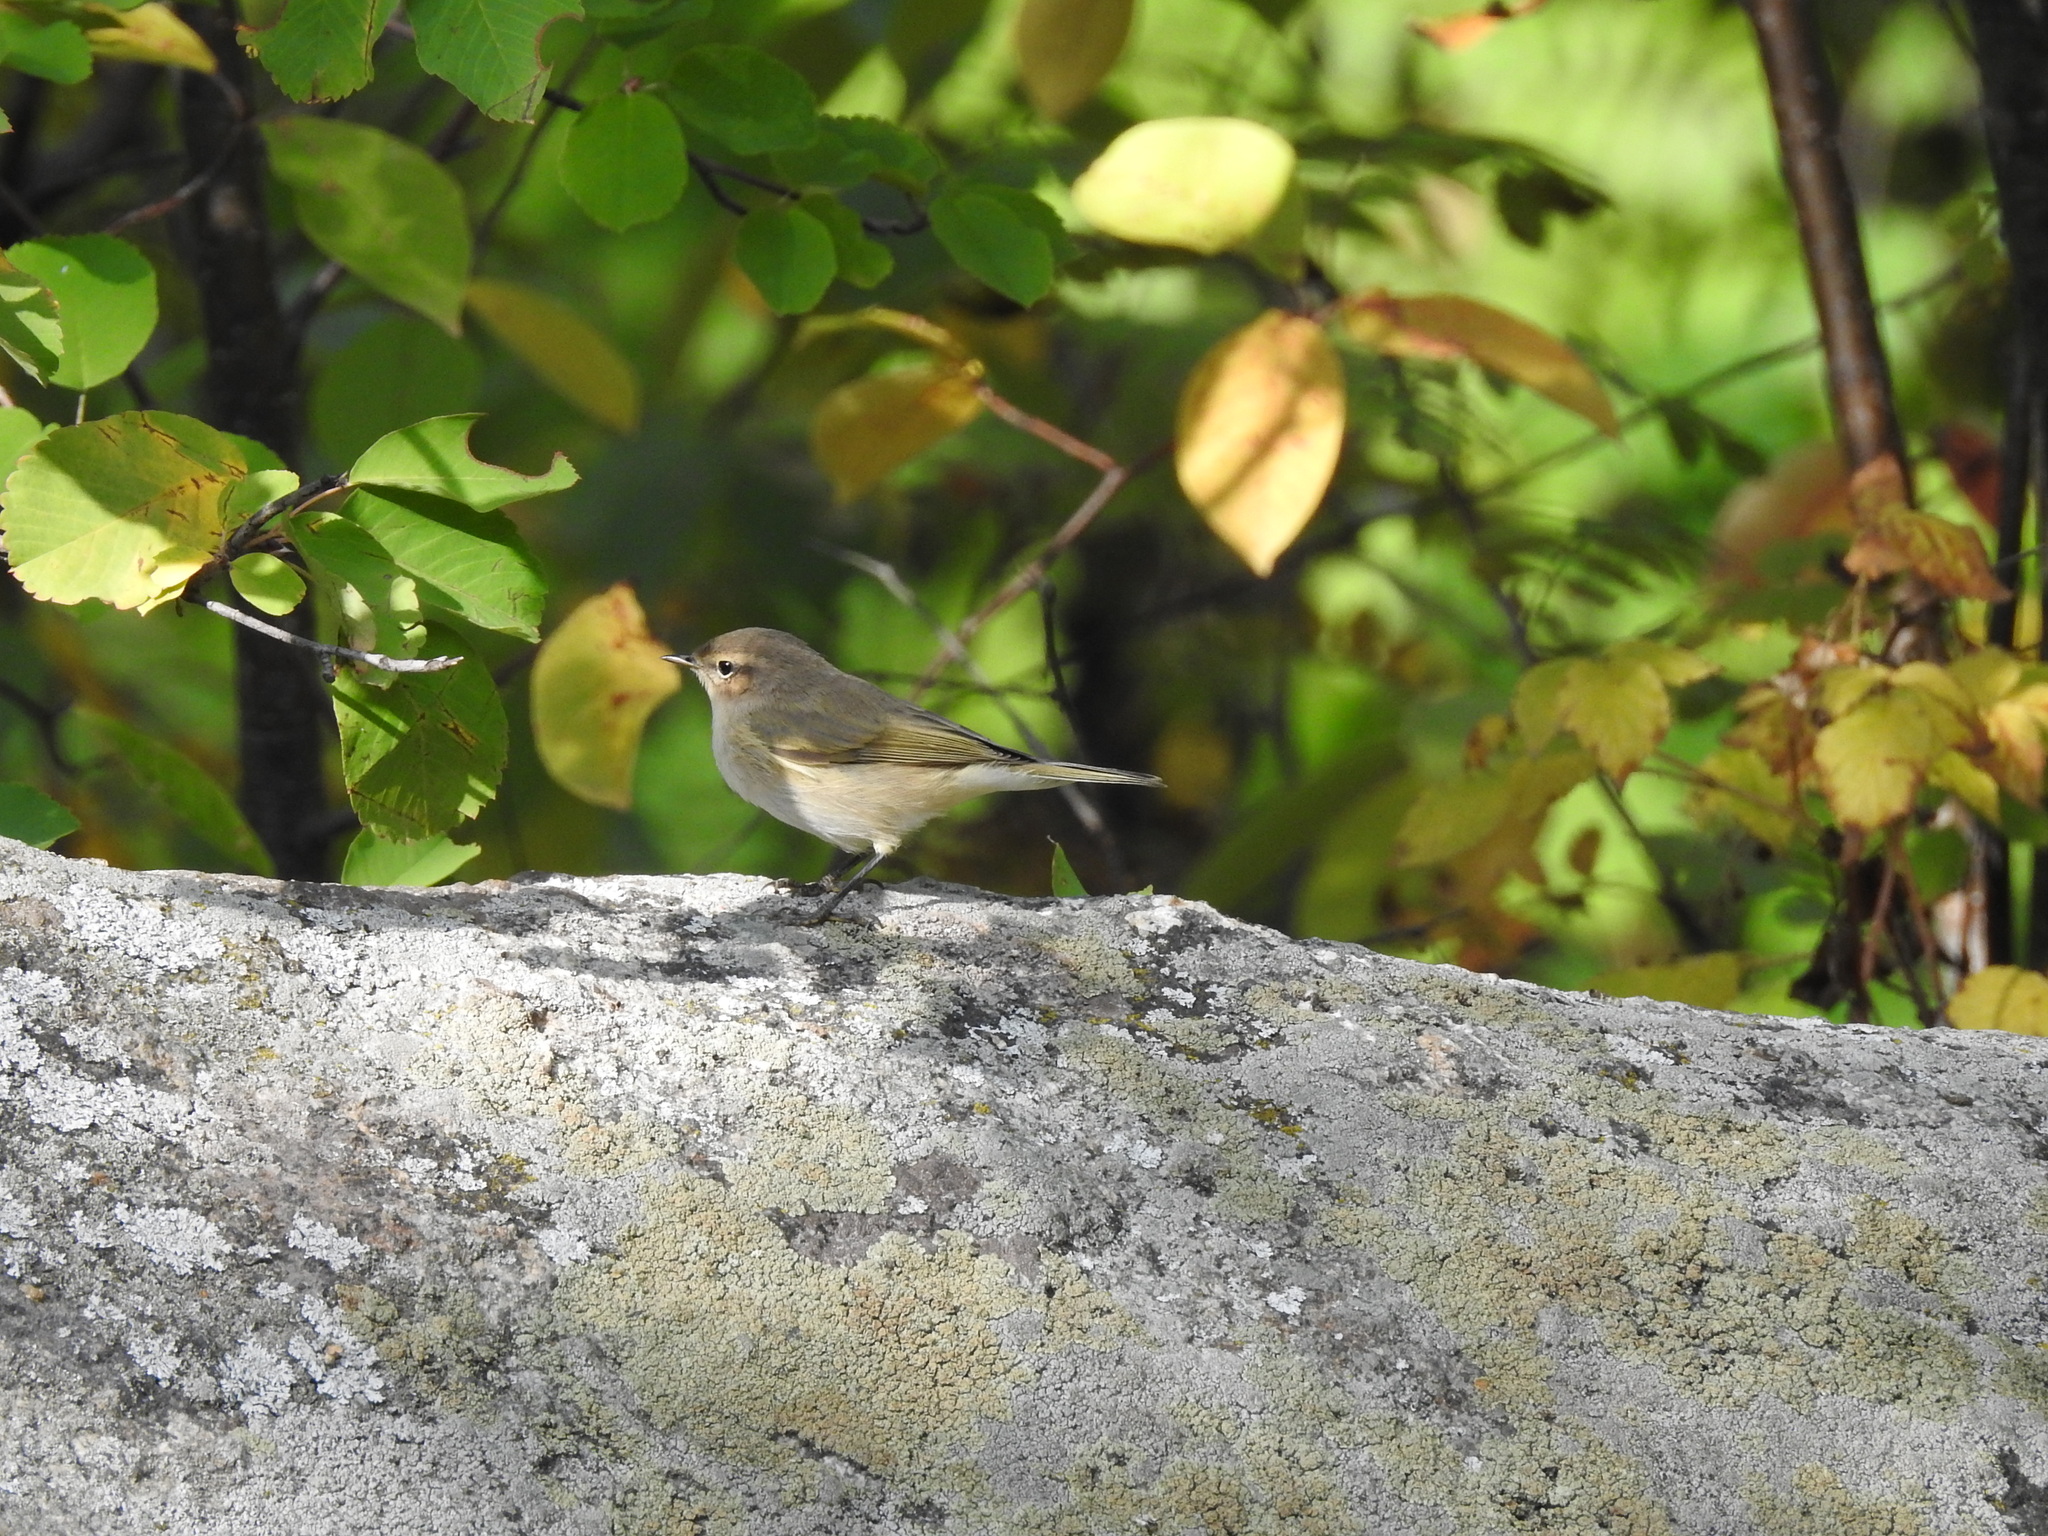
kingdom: Animalia
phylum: Chordata
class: Aves
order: Passeriformes
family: Phylloscopidae
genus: Phylloscopus
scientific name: Phylloscopus collybita
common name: Common chiffchaff
